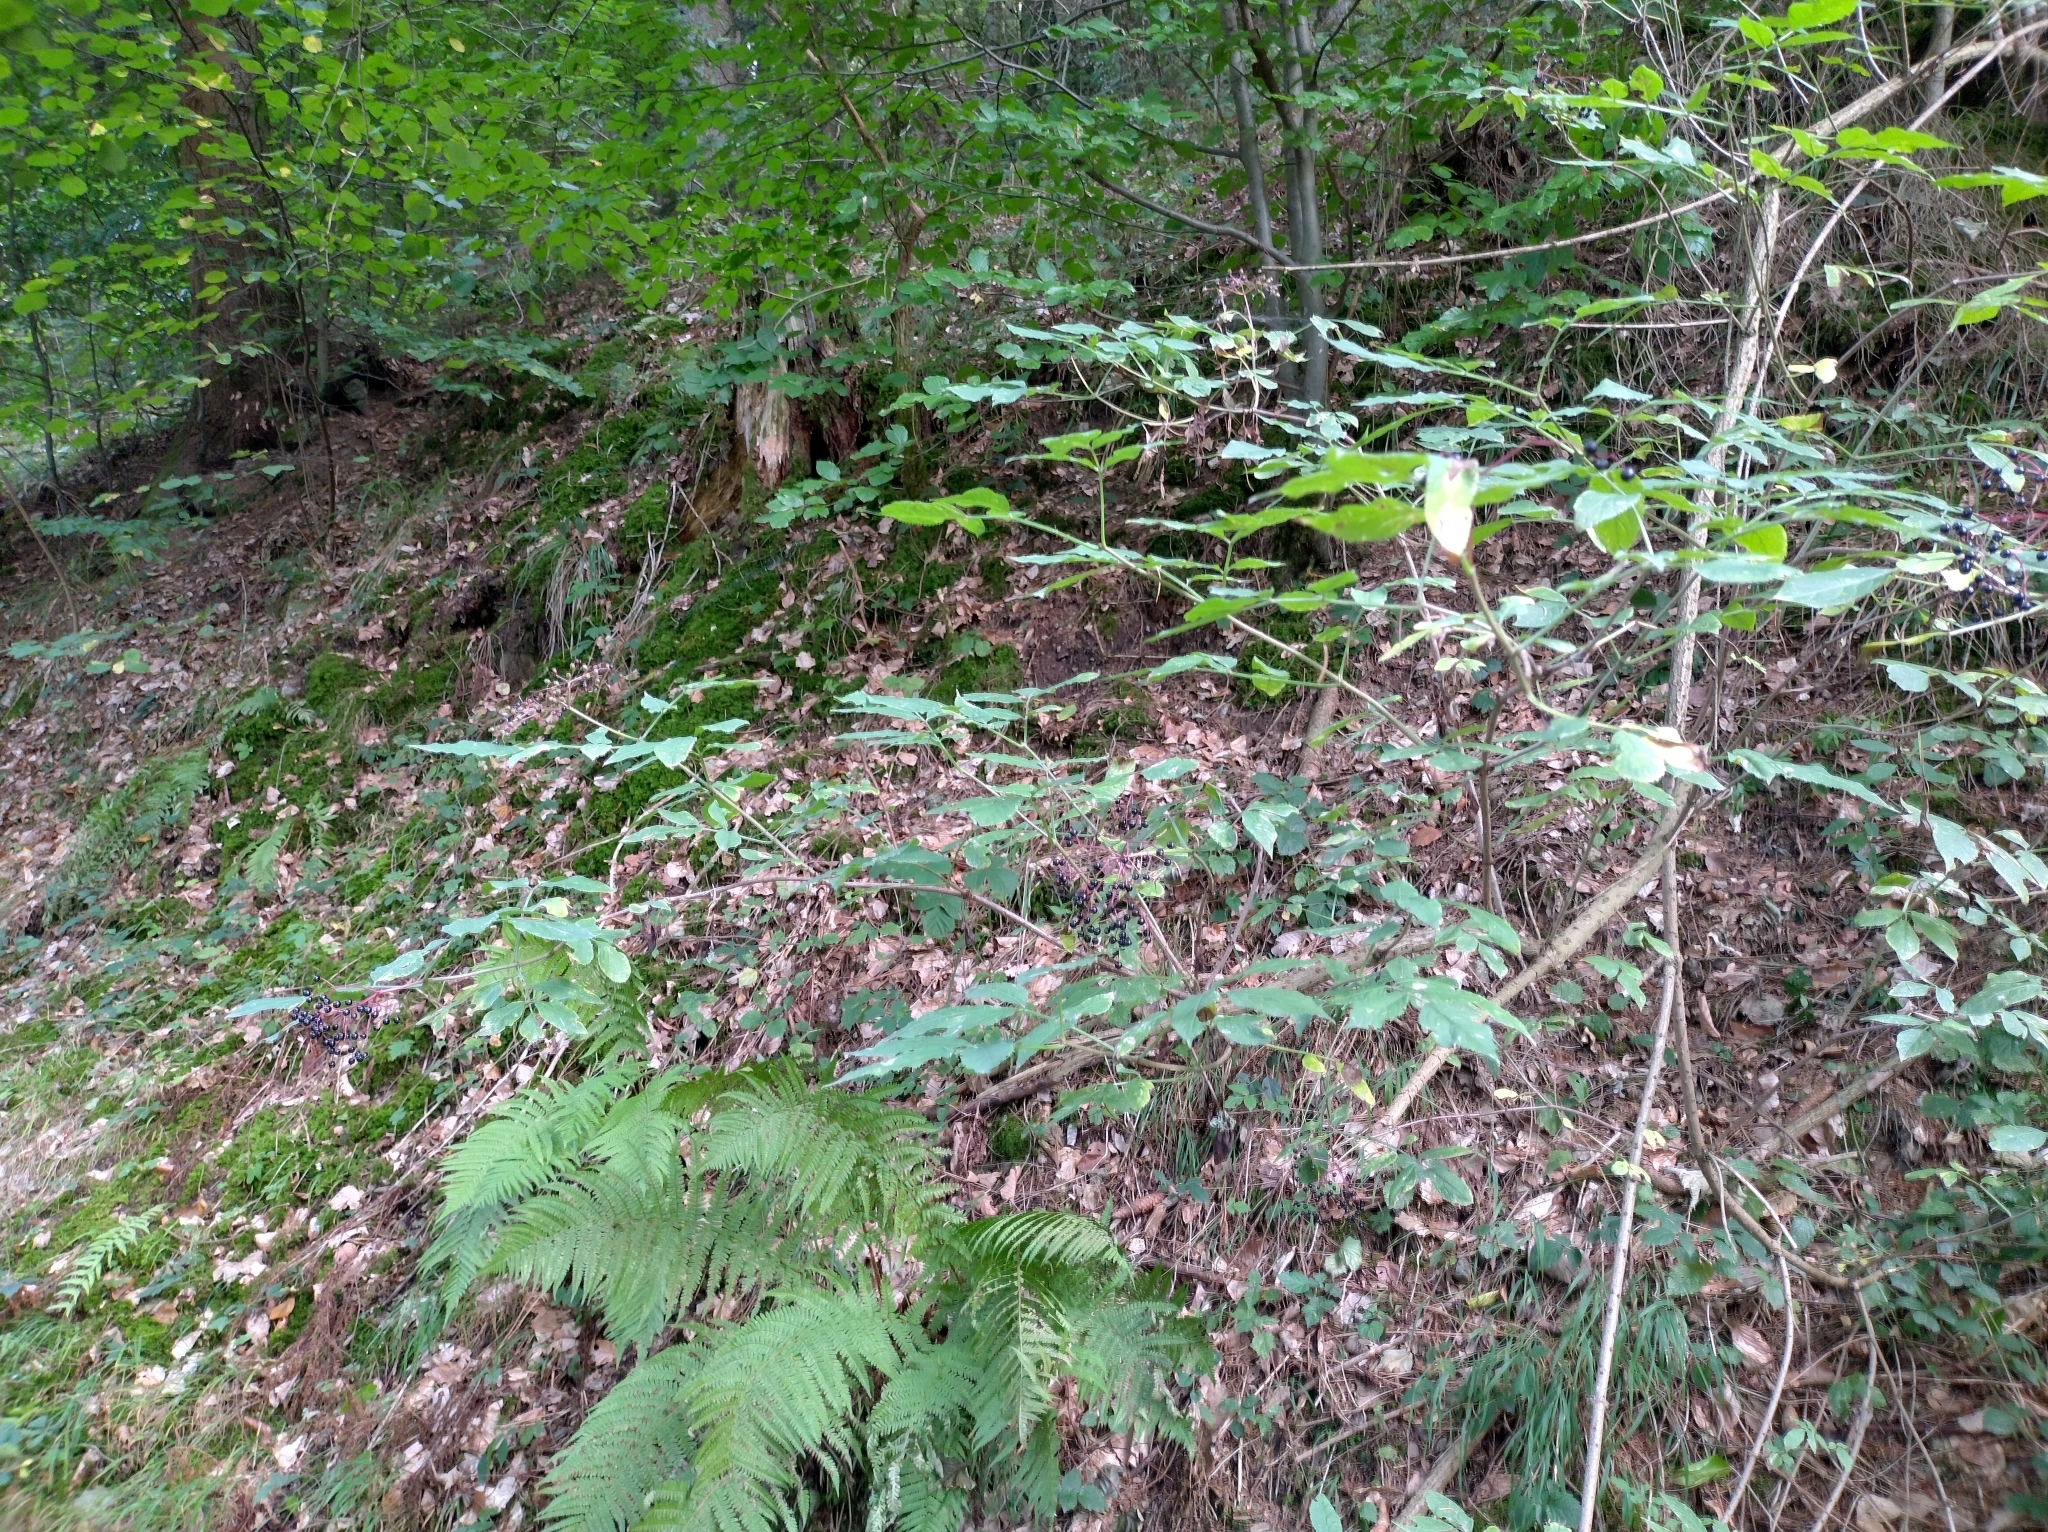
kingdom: Plantae
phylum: Tracheophyta
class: Magnoliopsida
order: Dipsacales
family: Viburnaceae
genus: Sambucus
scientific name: Sambucus nigra
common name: Elder
